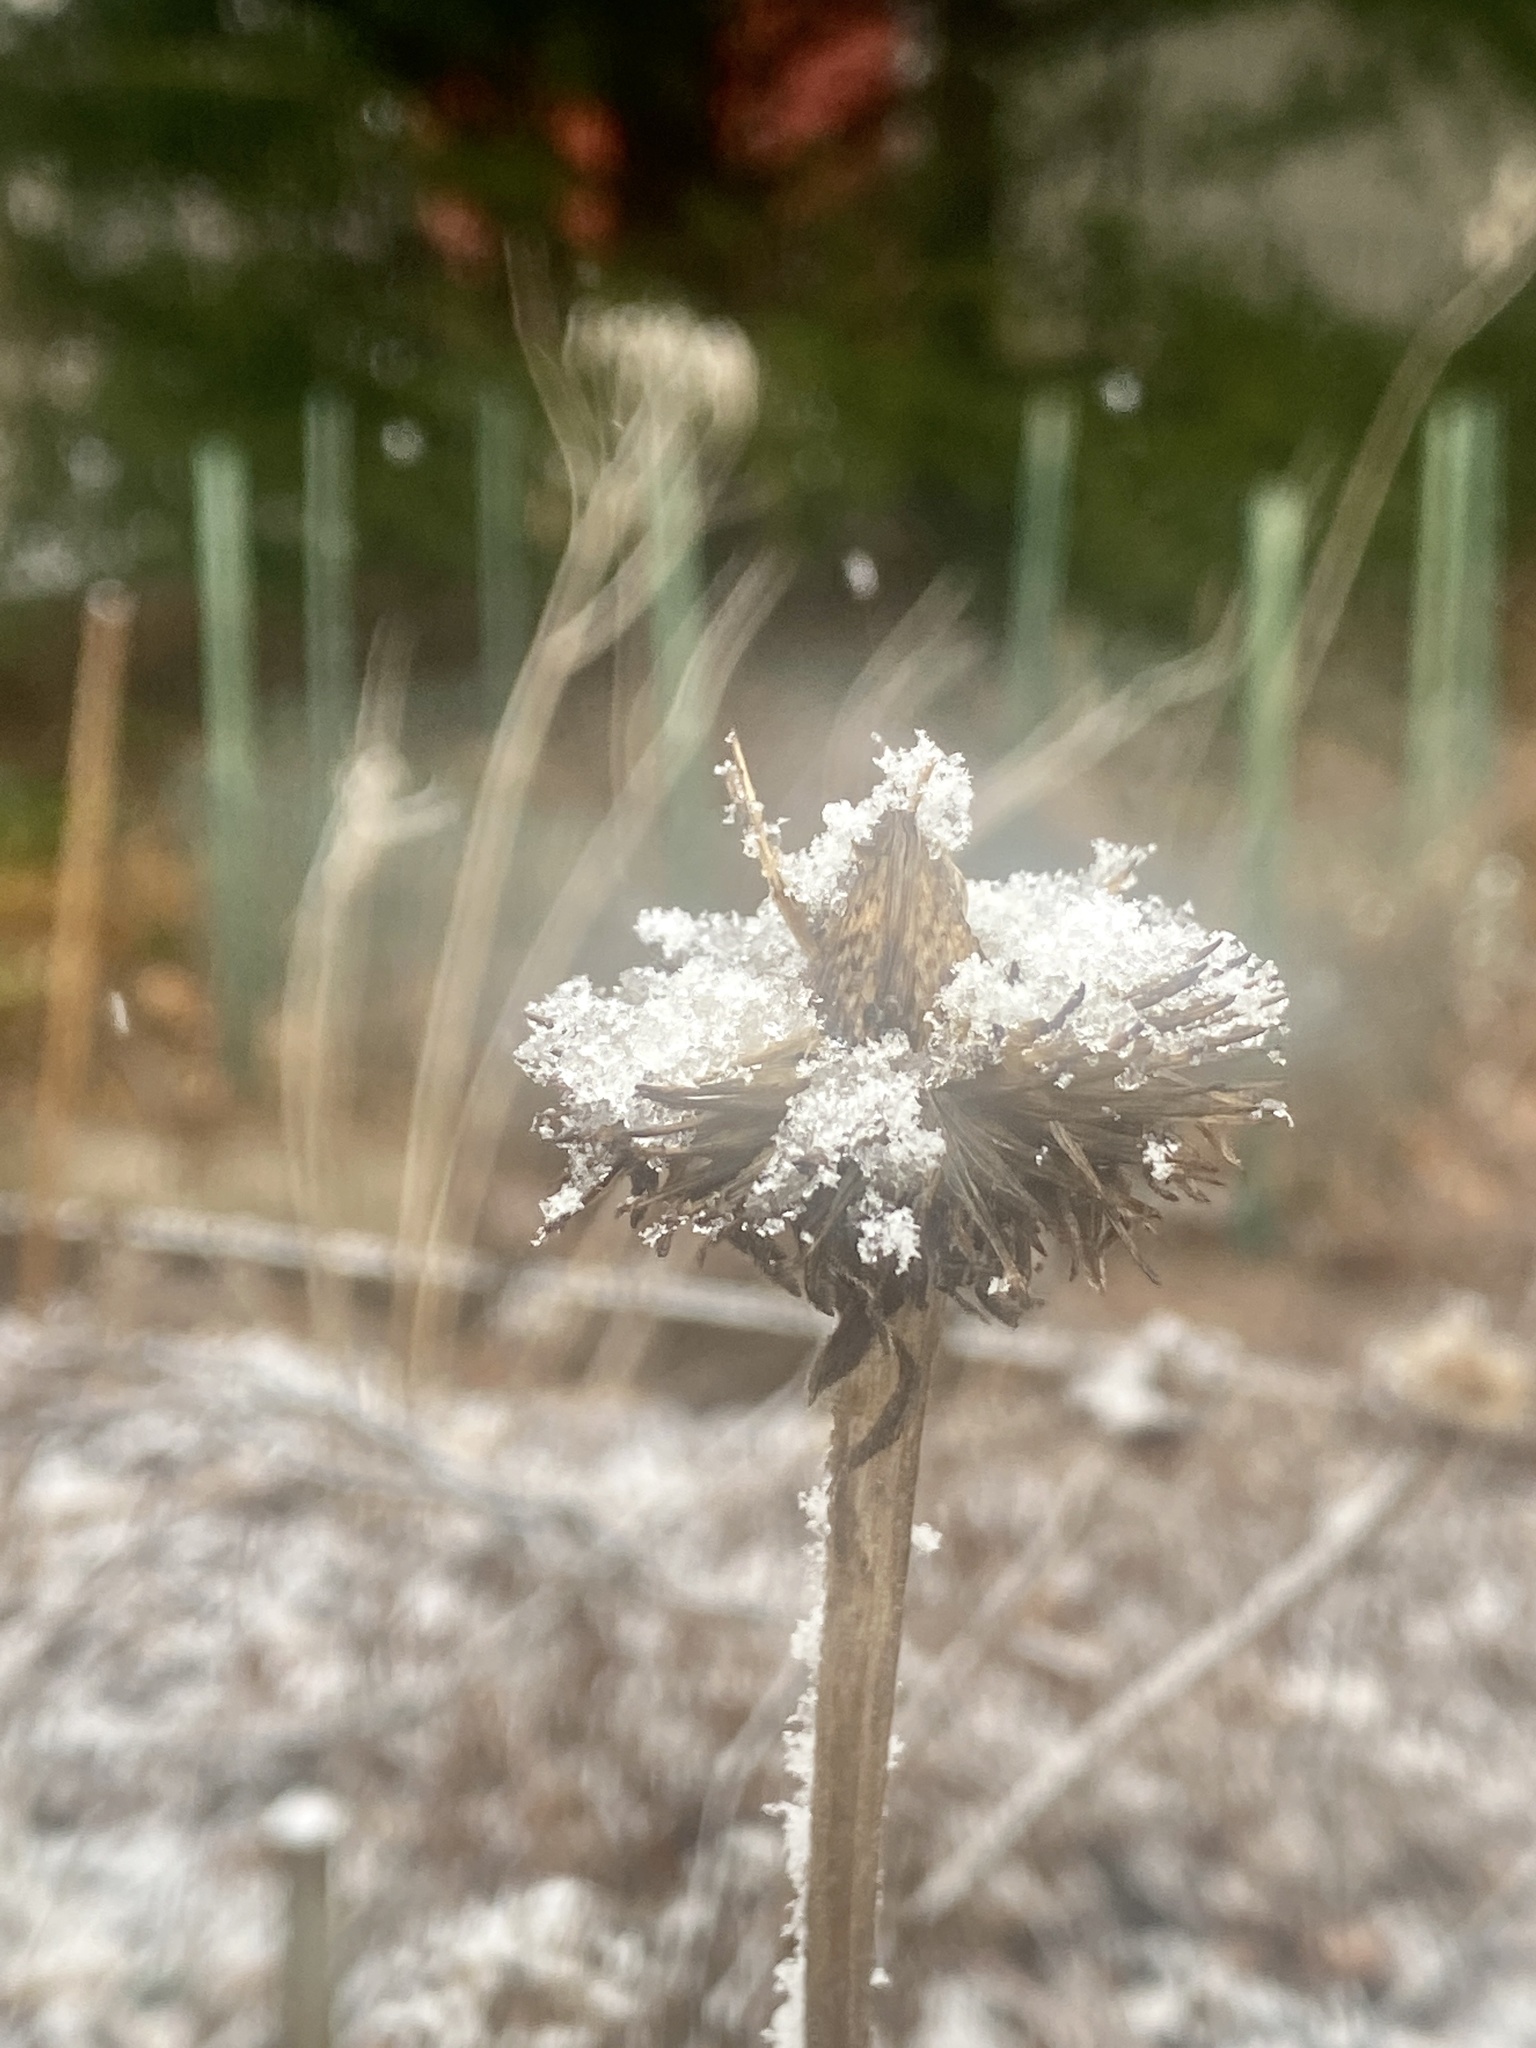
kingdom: Plantae
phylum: Tracheophyta
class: Magnoliopsida
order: Asterales
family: Asteraceae
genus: Echinacea
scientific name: Echinacea purpurea
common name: Broad-leaved purple coneflower
